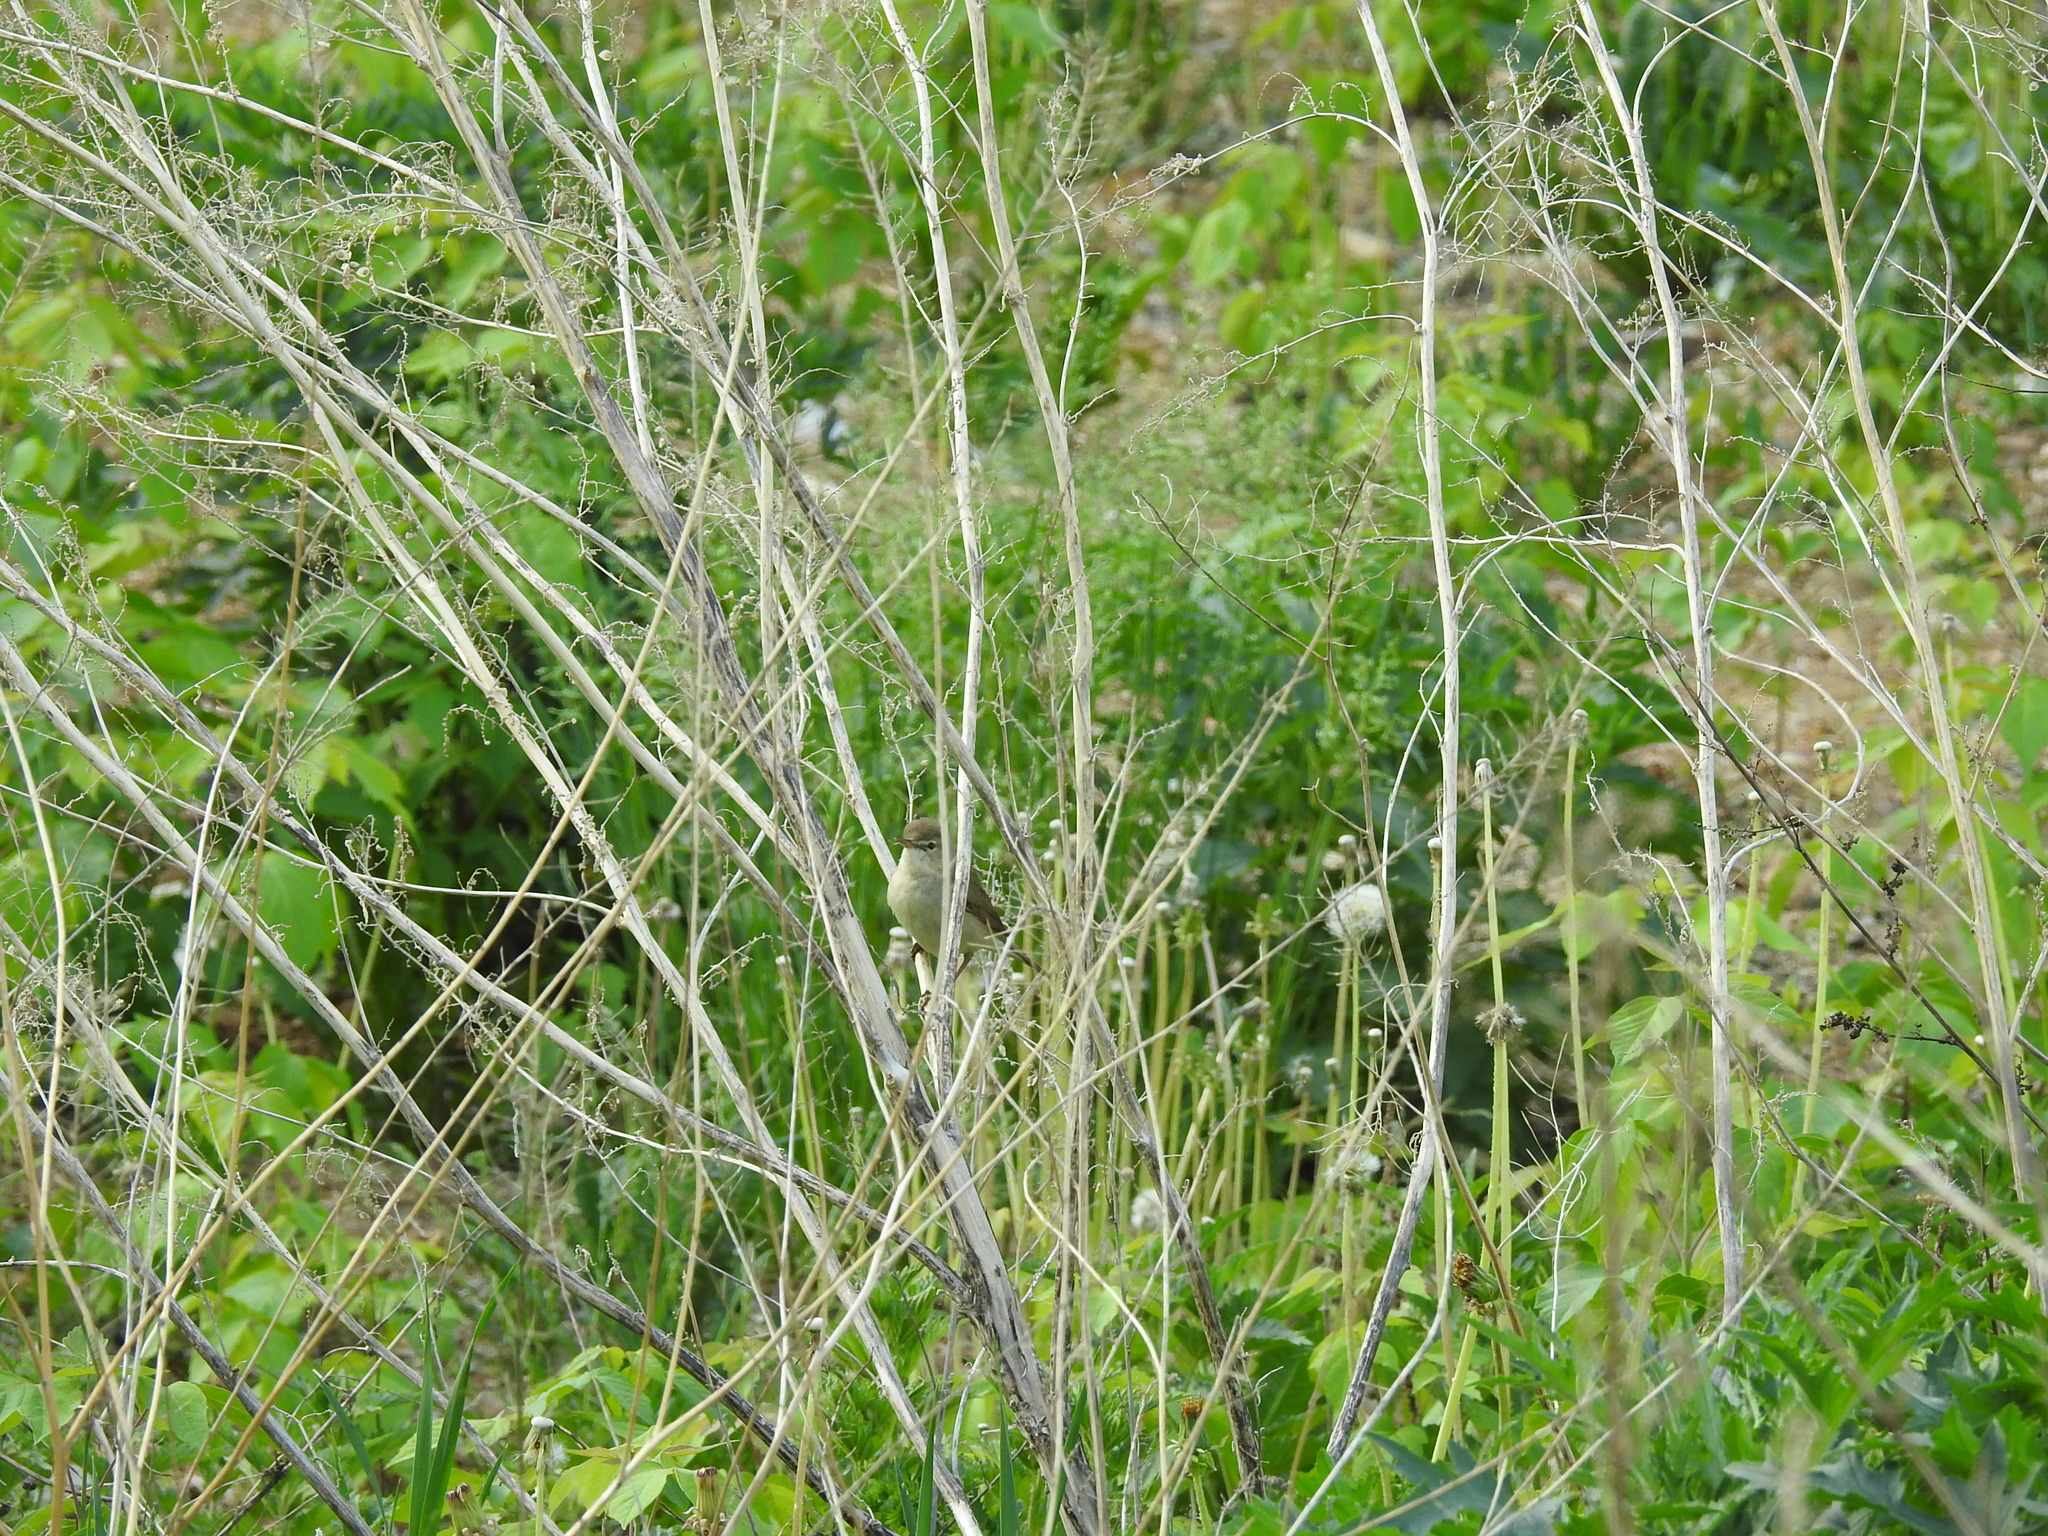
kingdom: Animalia
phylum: Chordata
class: Aves
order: Passeriformes
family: Acrocephalidae
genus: Acrocephalus
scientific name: Acrocephalus dumetorum
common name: Blyth's reed warbler
